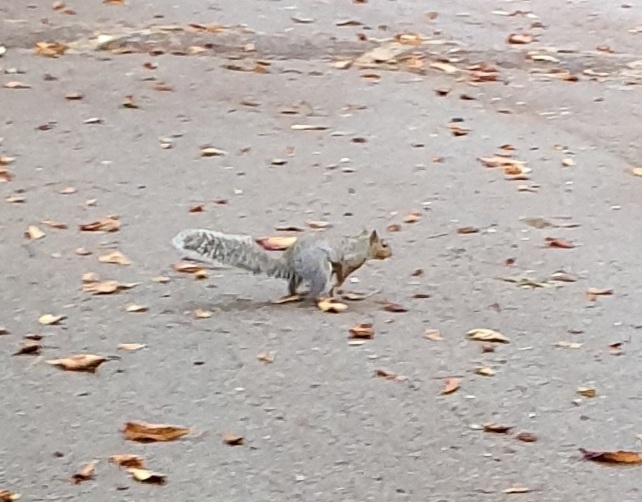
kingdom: Animalia
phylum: Chordata
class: Mammalia
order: Rodentia
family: Sciuridae
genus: Sciurus
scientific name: Sciurus carolinensis
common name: Eastern gray squirrel
